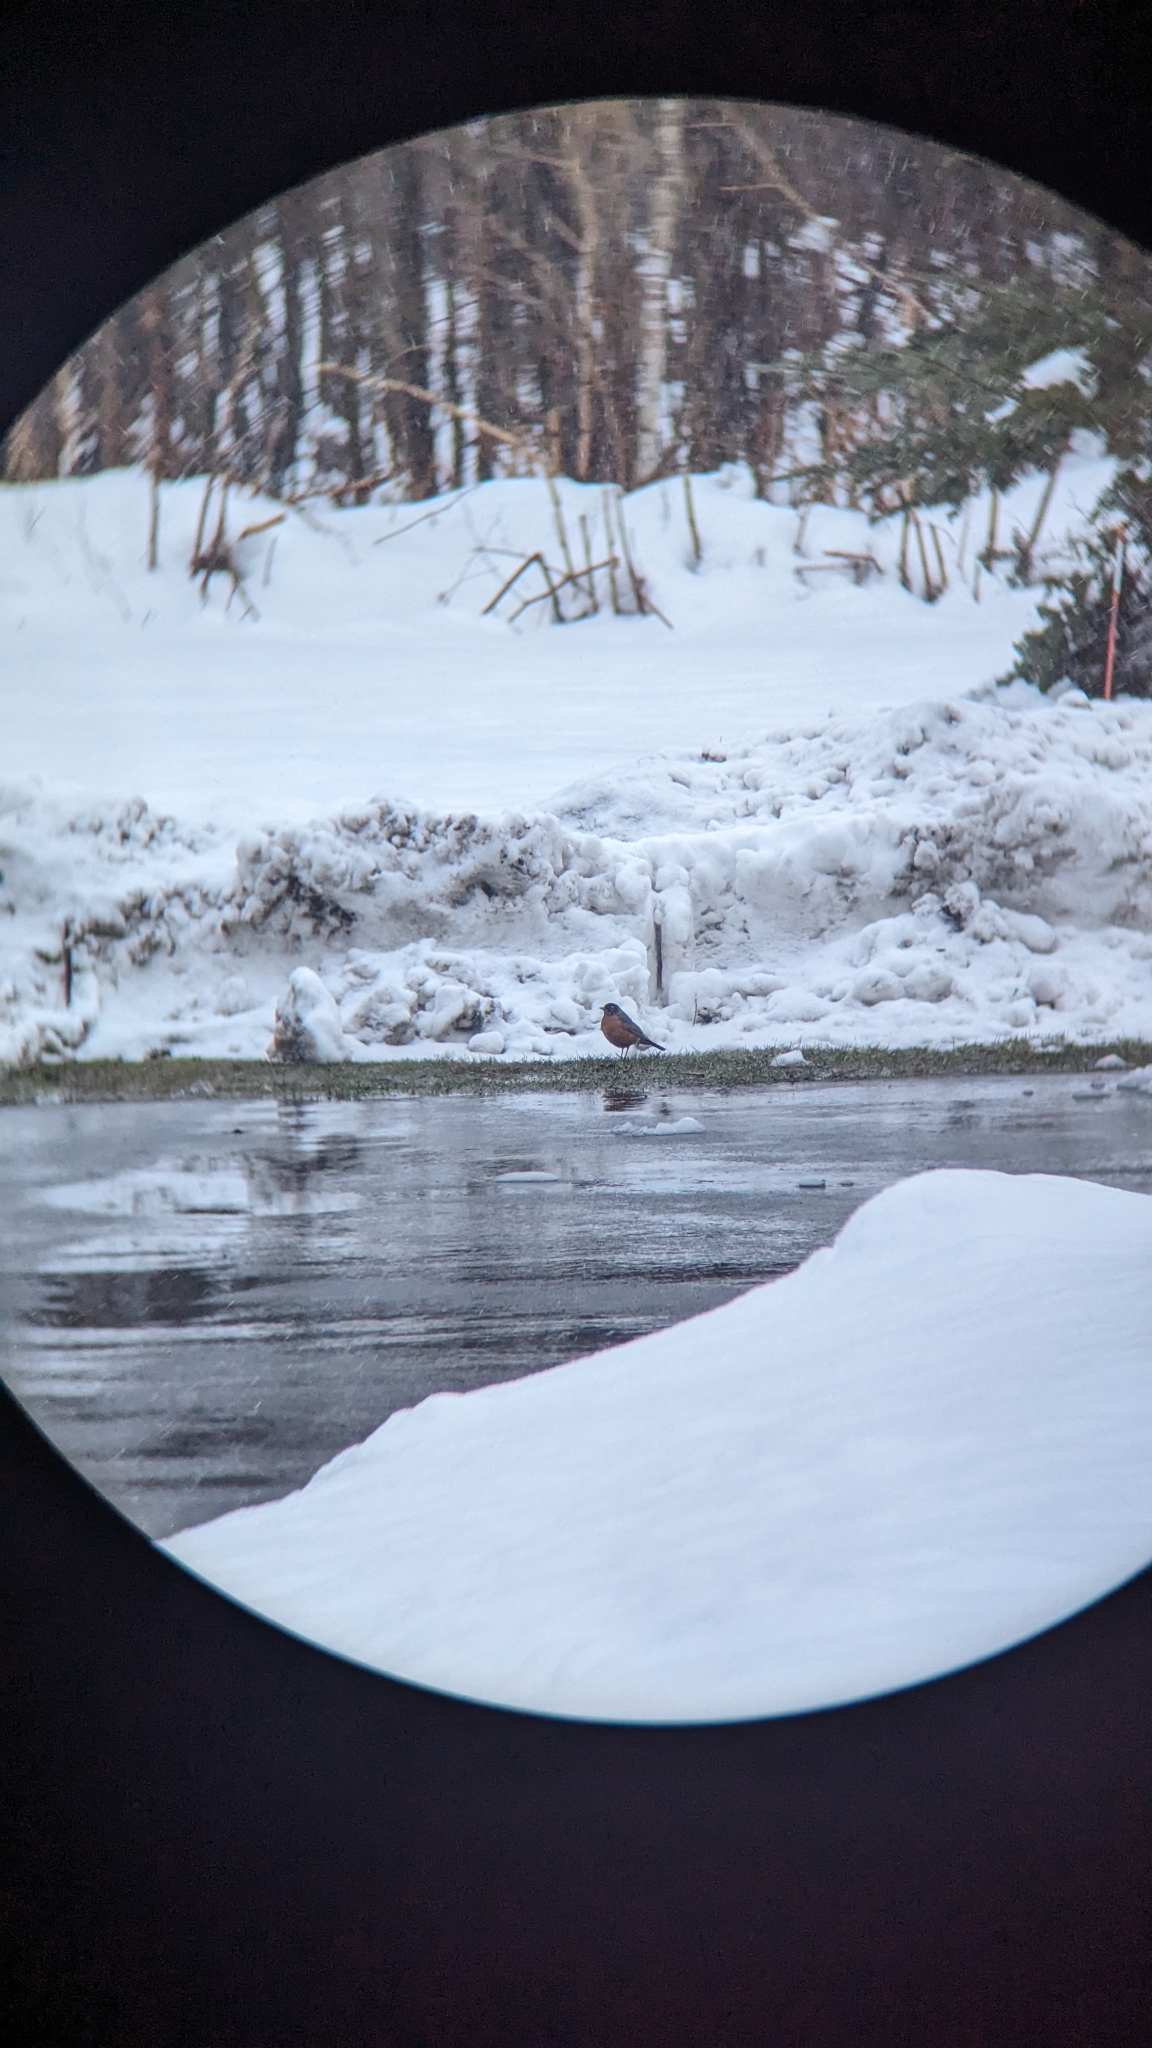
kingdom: Animalia
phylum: Chordata
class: Aves
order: Passeriformes
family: Turdidae
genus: Turdus
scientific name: Turdus migratorius
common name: American robin
